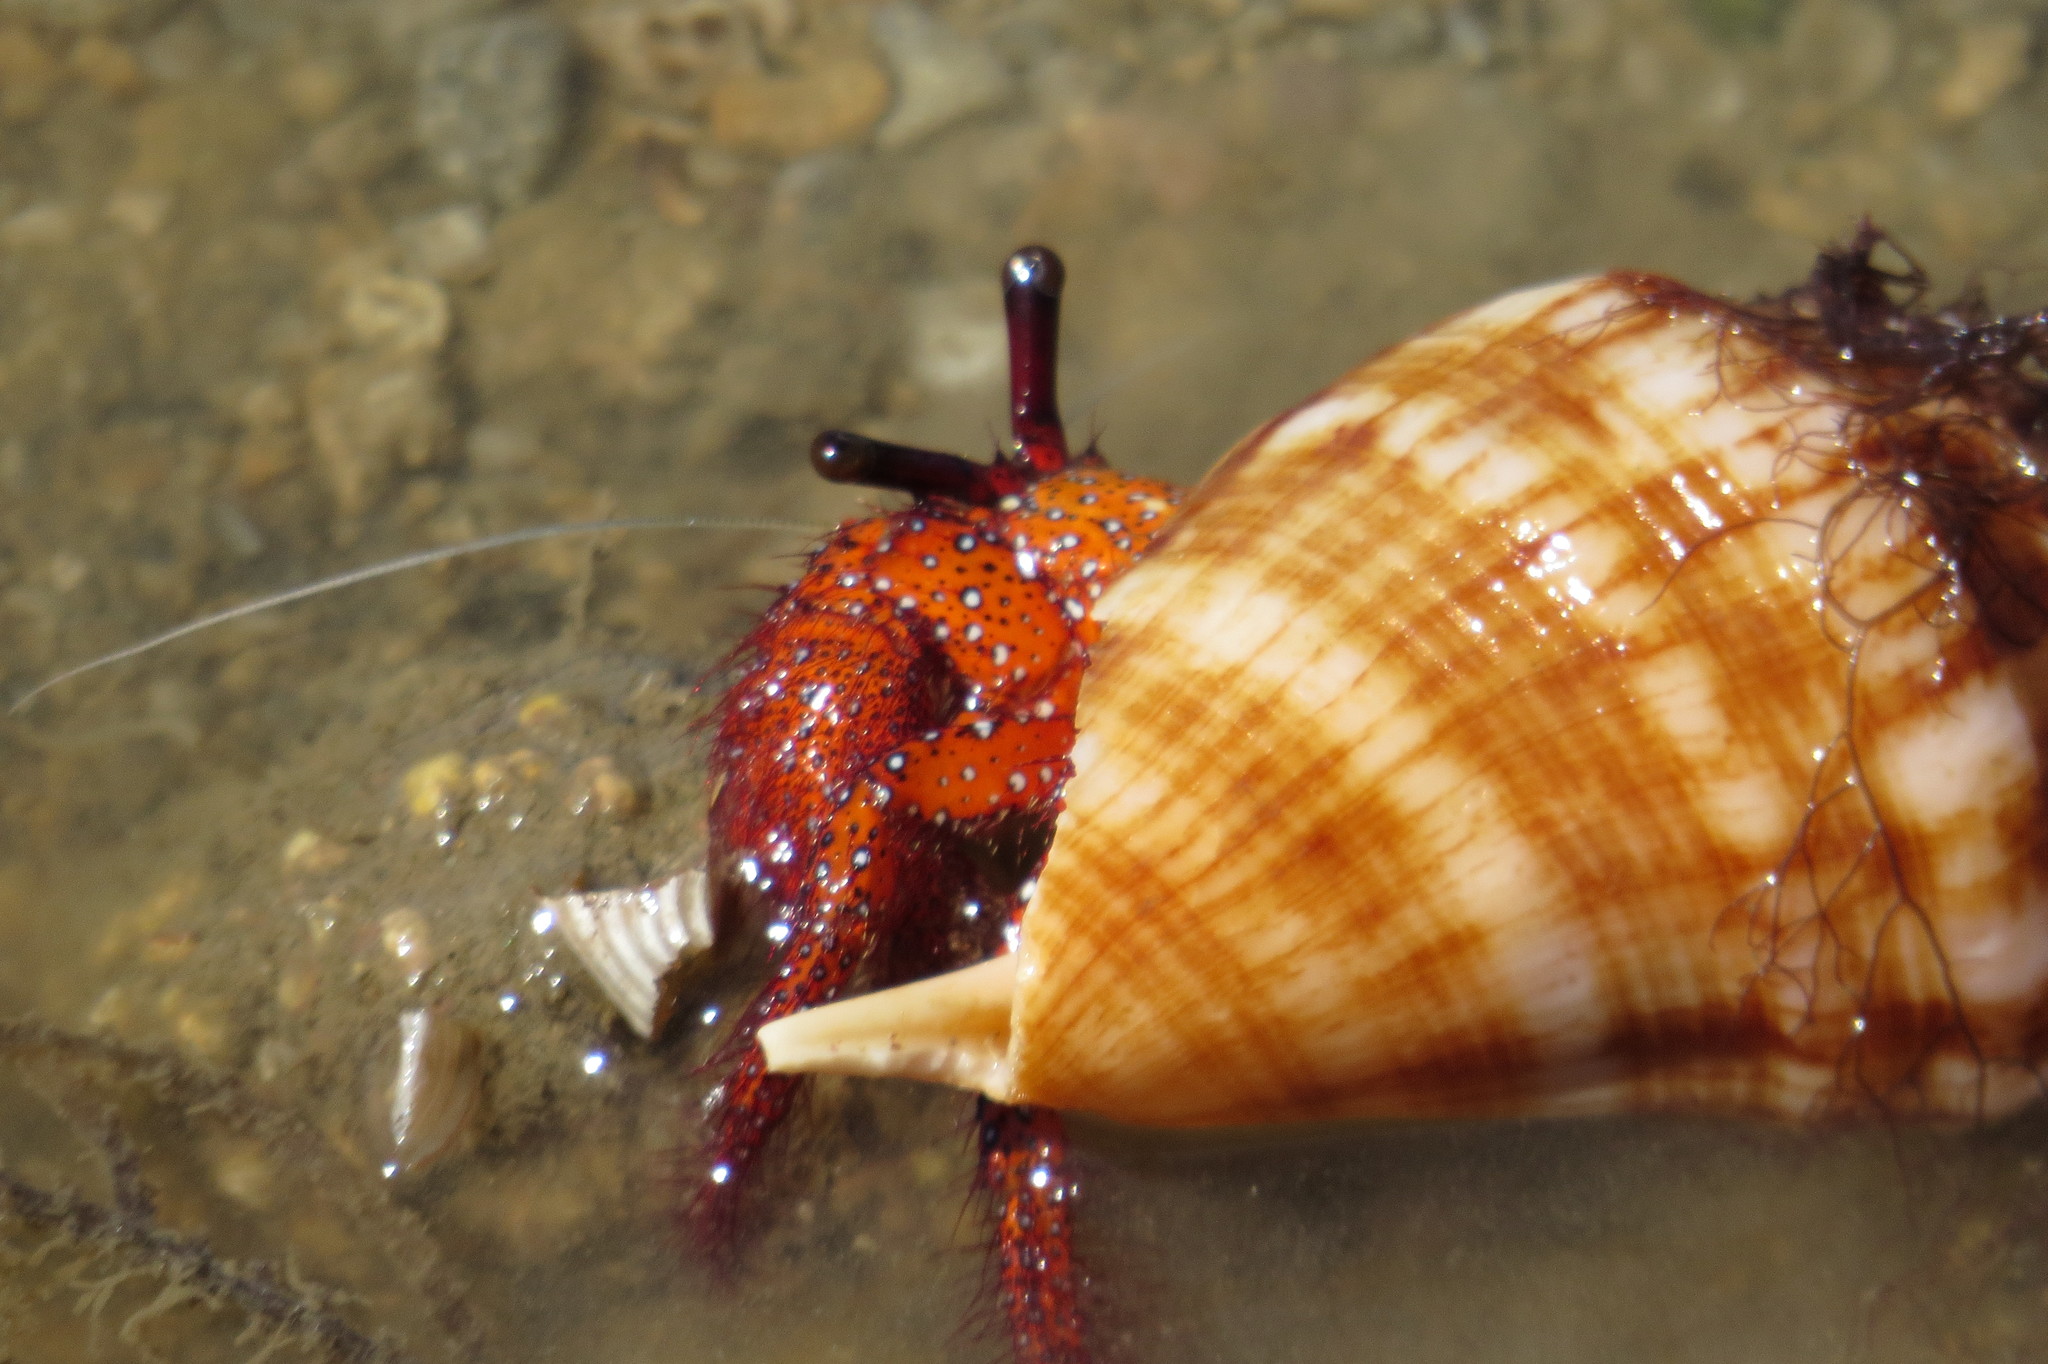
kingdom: Animalia
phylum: Arthropoda
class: Malacostraca
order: Decapoda
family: Diogenidae
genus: Dardanus
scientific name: Dardanus megistos
